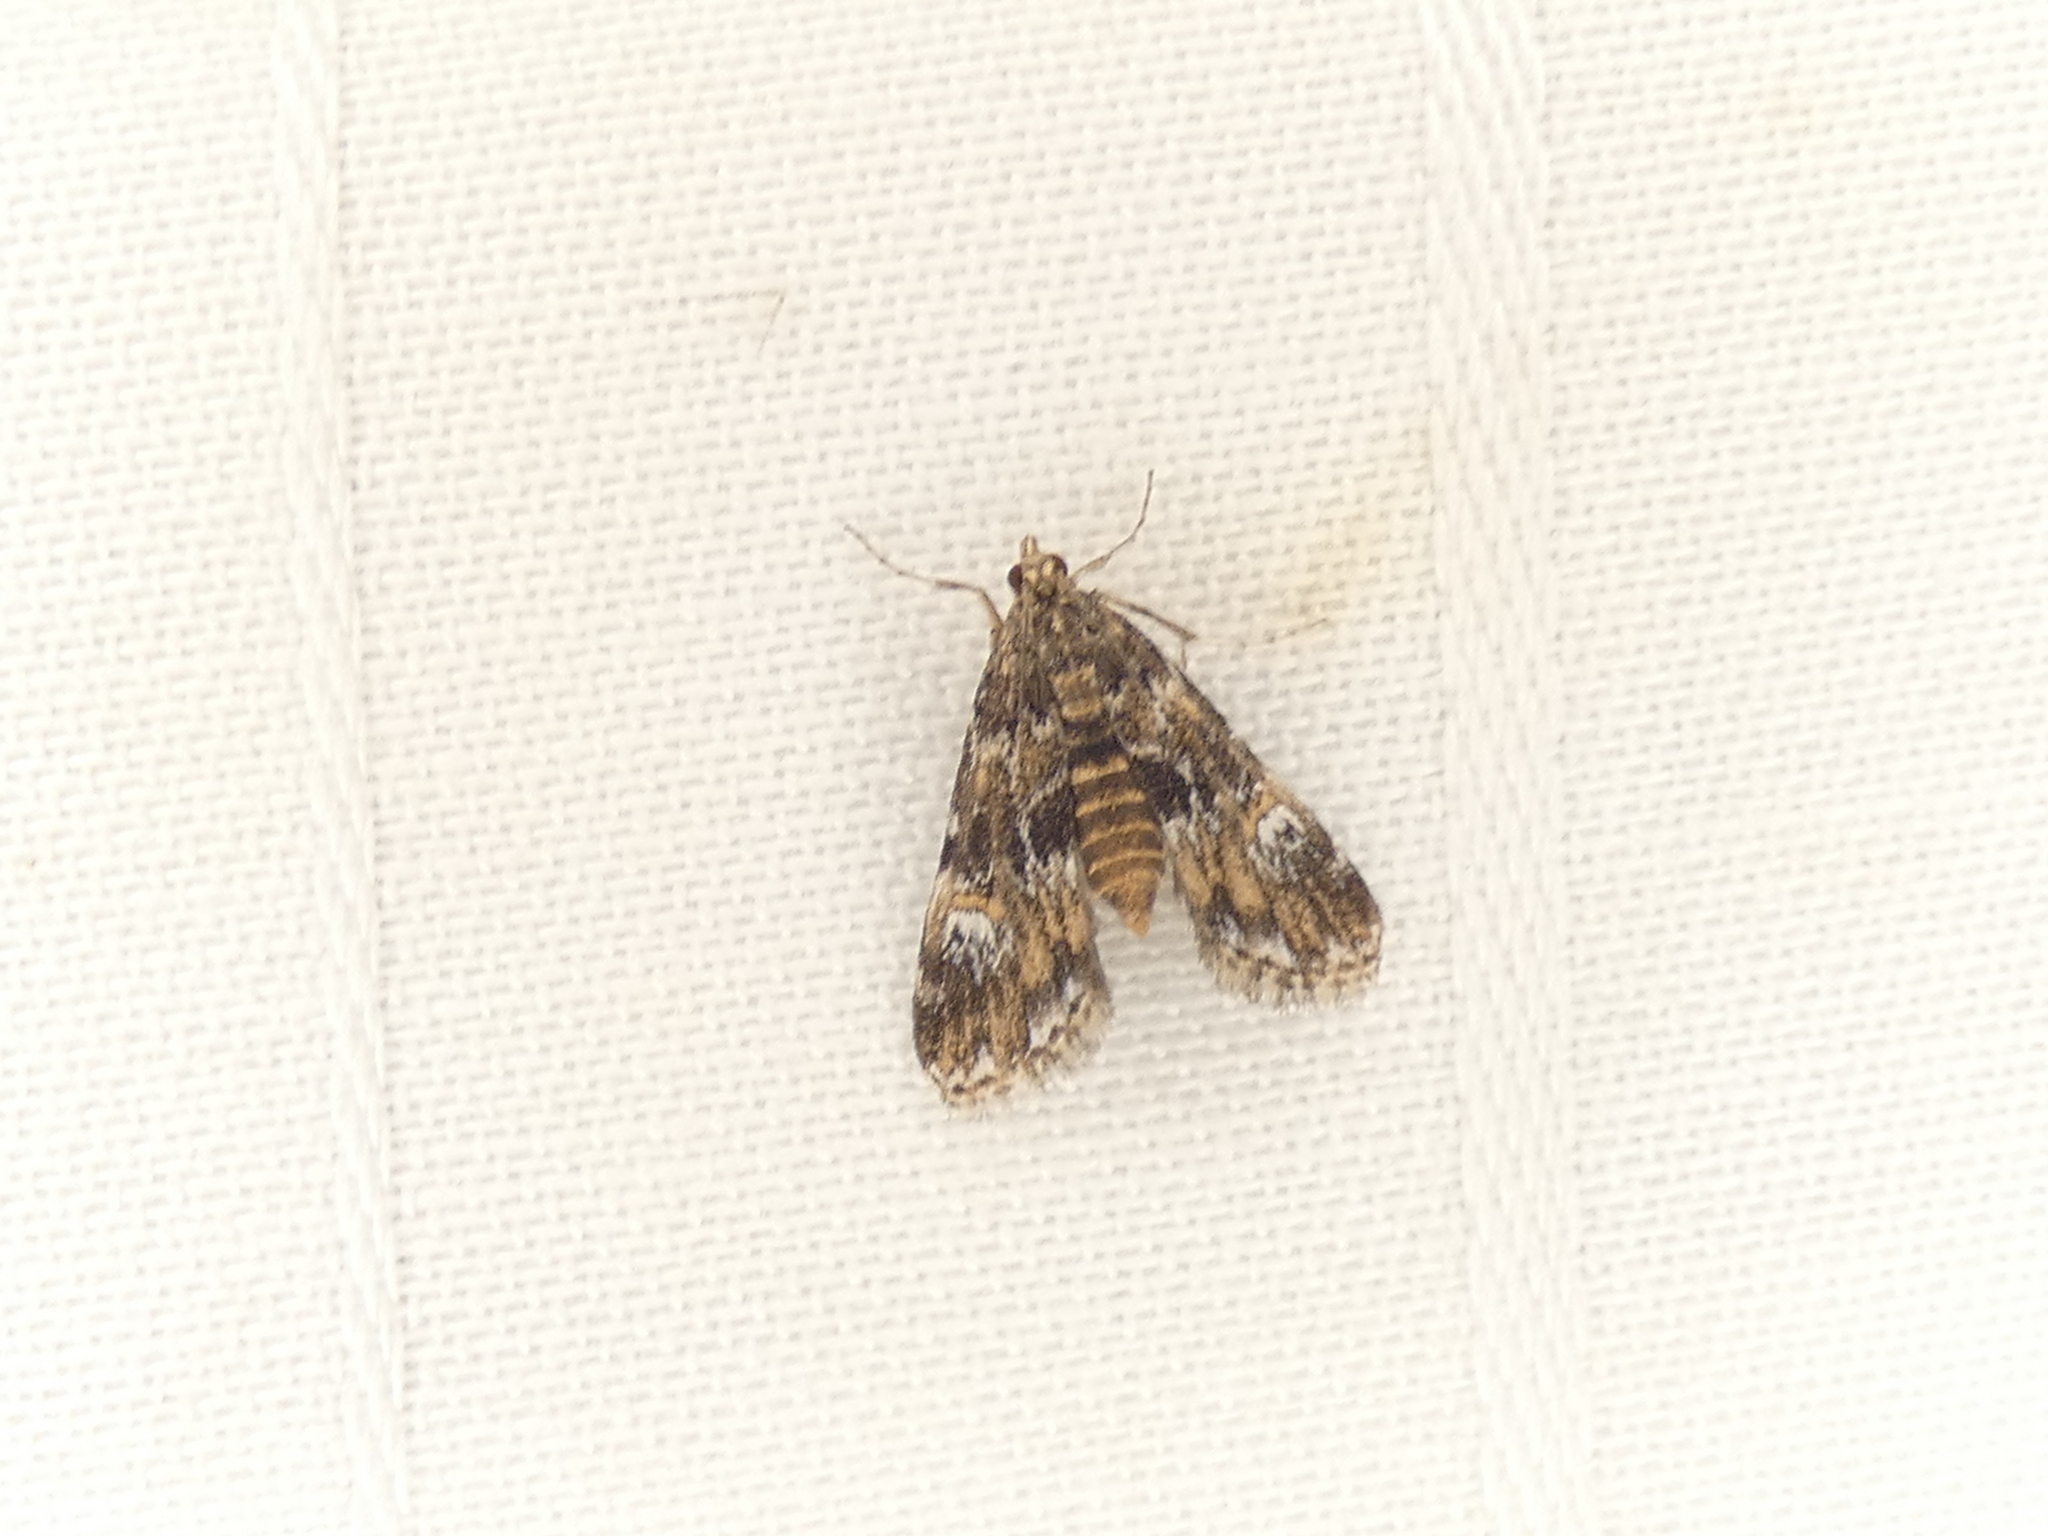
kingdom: Animalia
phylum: Arthropoda
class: Insecta
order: Lepidoptera
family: Crambidae
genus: Elophila
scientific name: Elophila obliteralis
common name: Waterlily leafcutter moth
